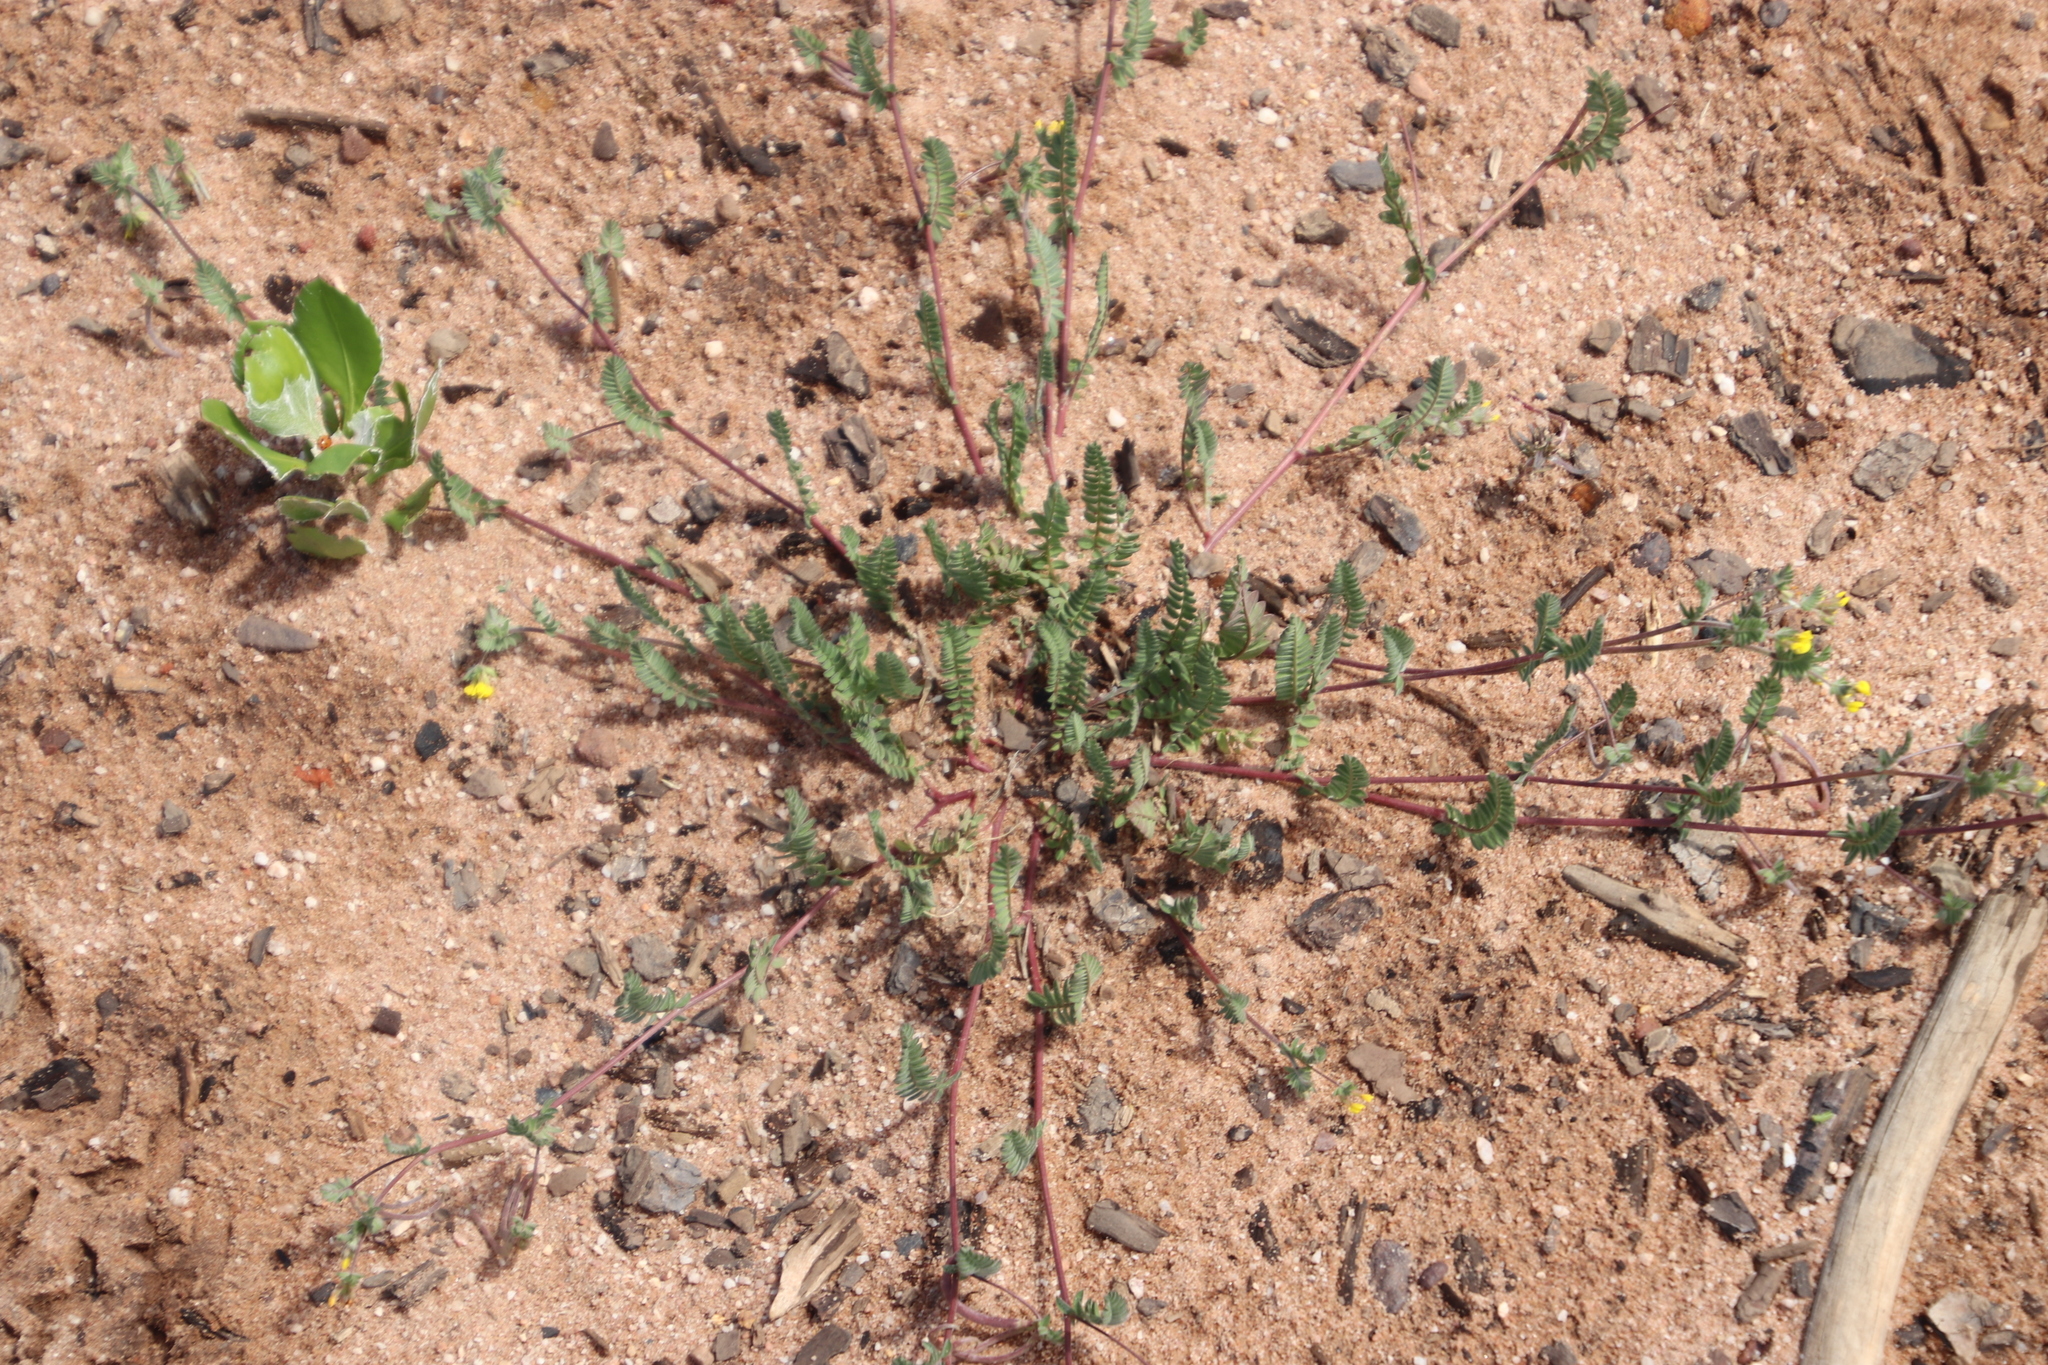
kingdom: Plantae
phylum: Tracheophyta
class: Magnoliopsida
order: Fabales
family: Fabaceae
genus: Ornithopus
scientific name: Ornithopus compressus
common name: Yellow serradella
